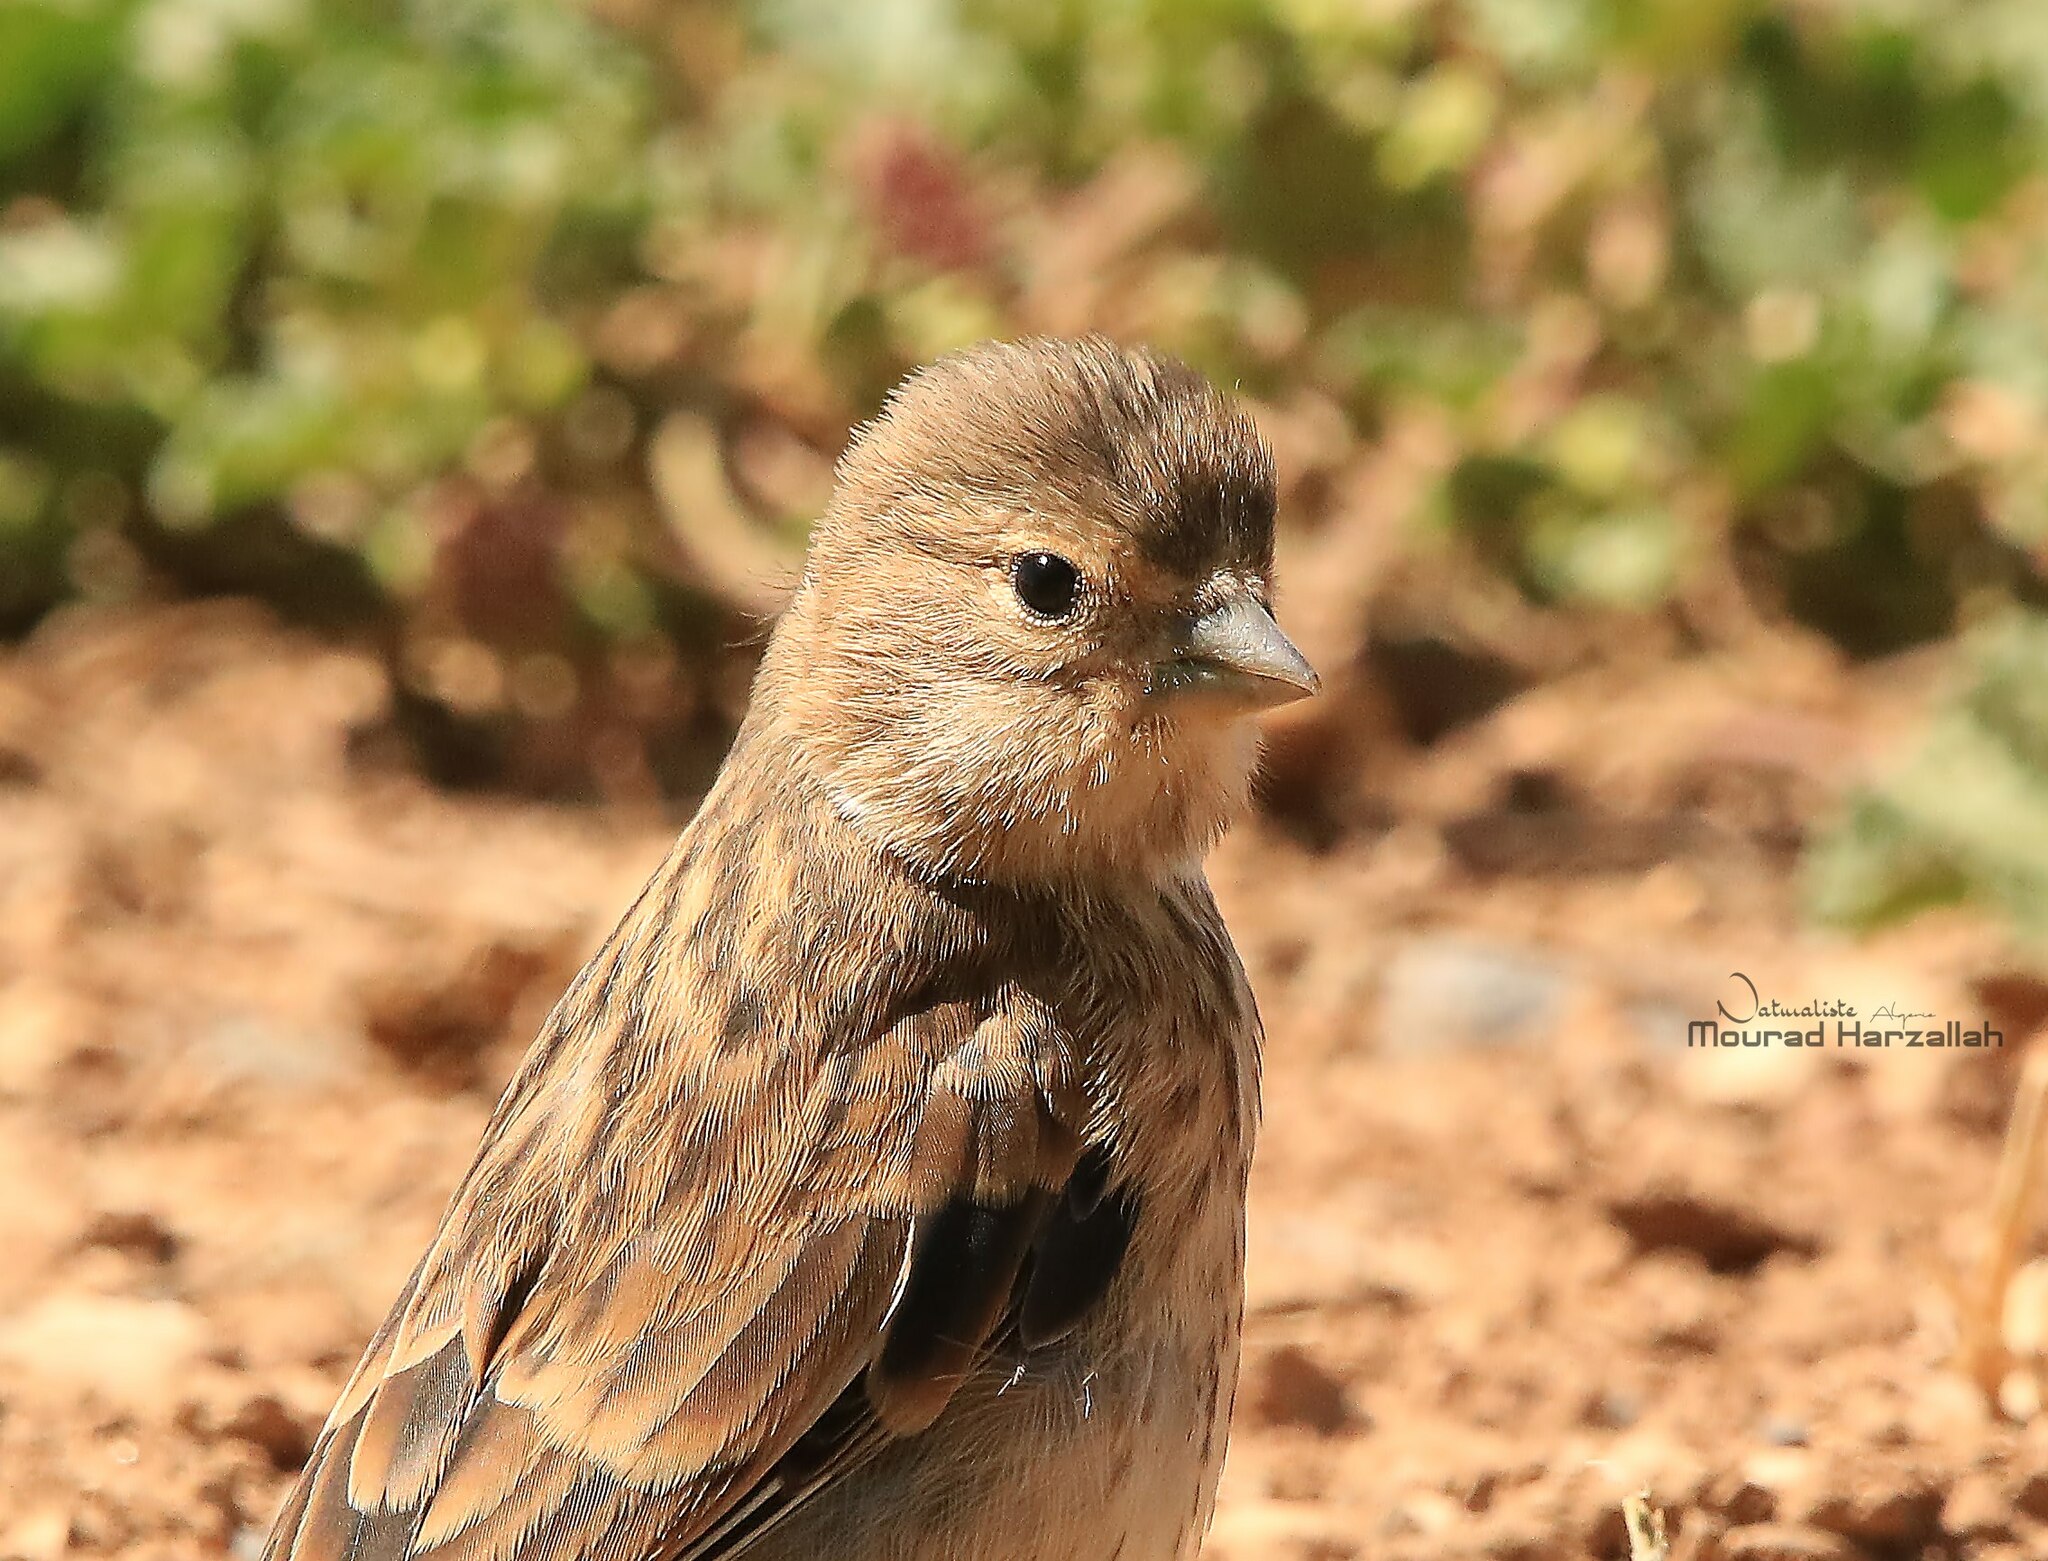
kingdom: Animalia
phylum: Chordata
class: Aves
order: Passeriformes
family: Fringillidae
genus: Linaria
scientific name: Linaria cannabina
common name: Common linnet
